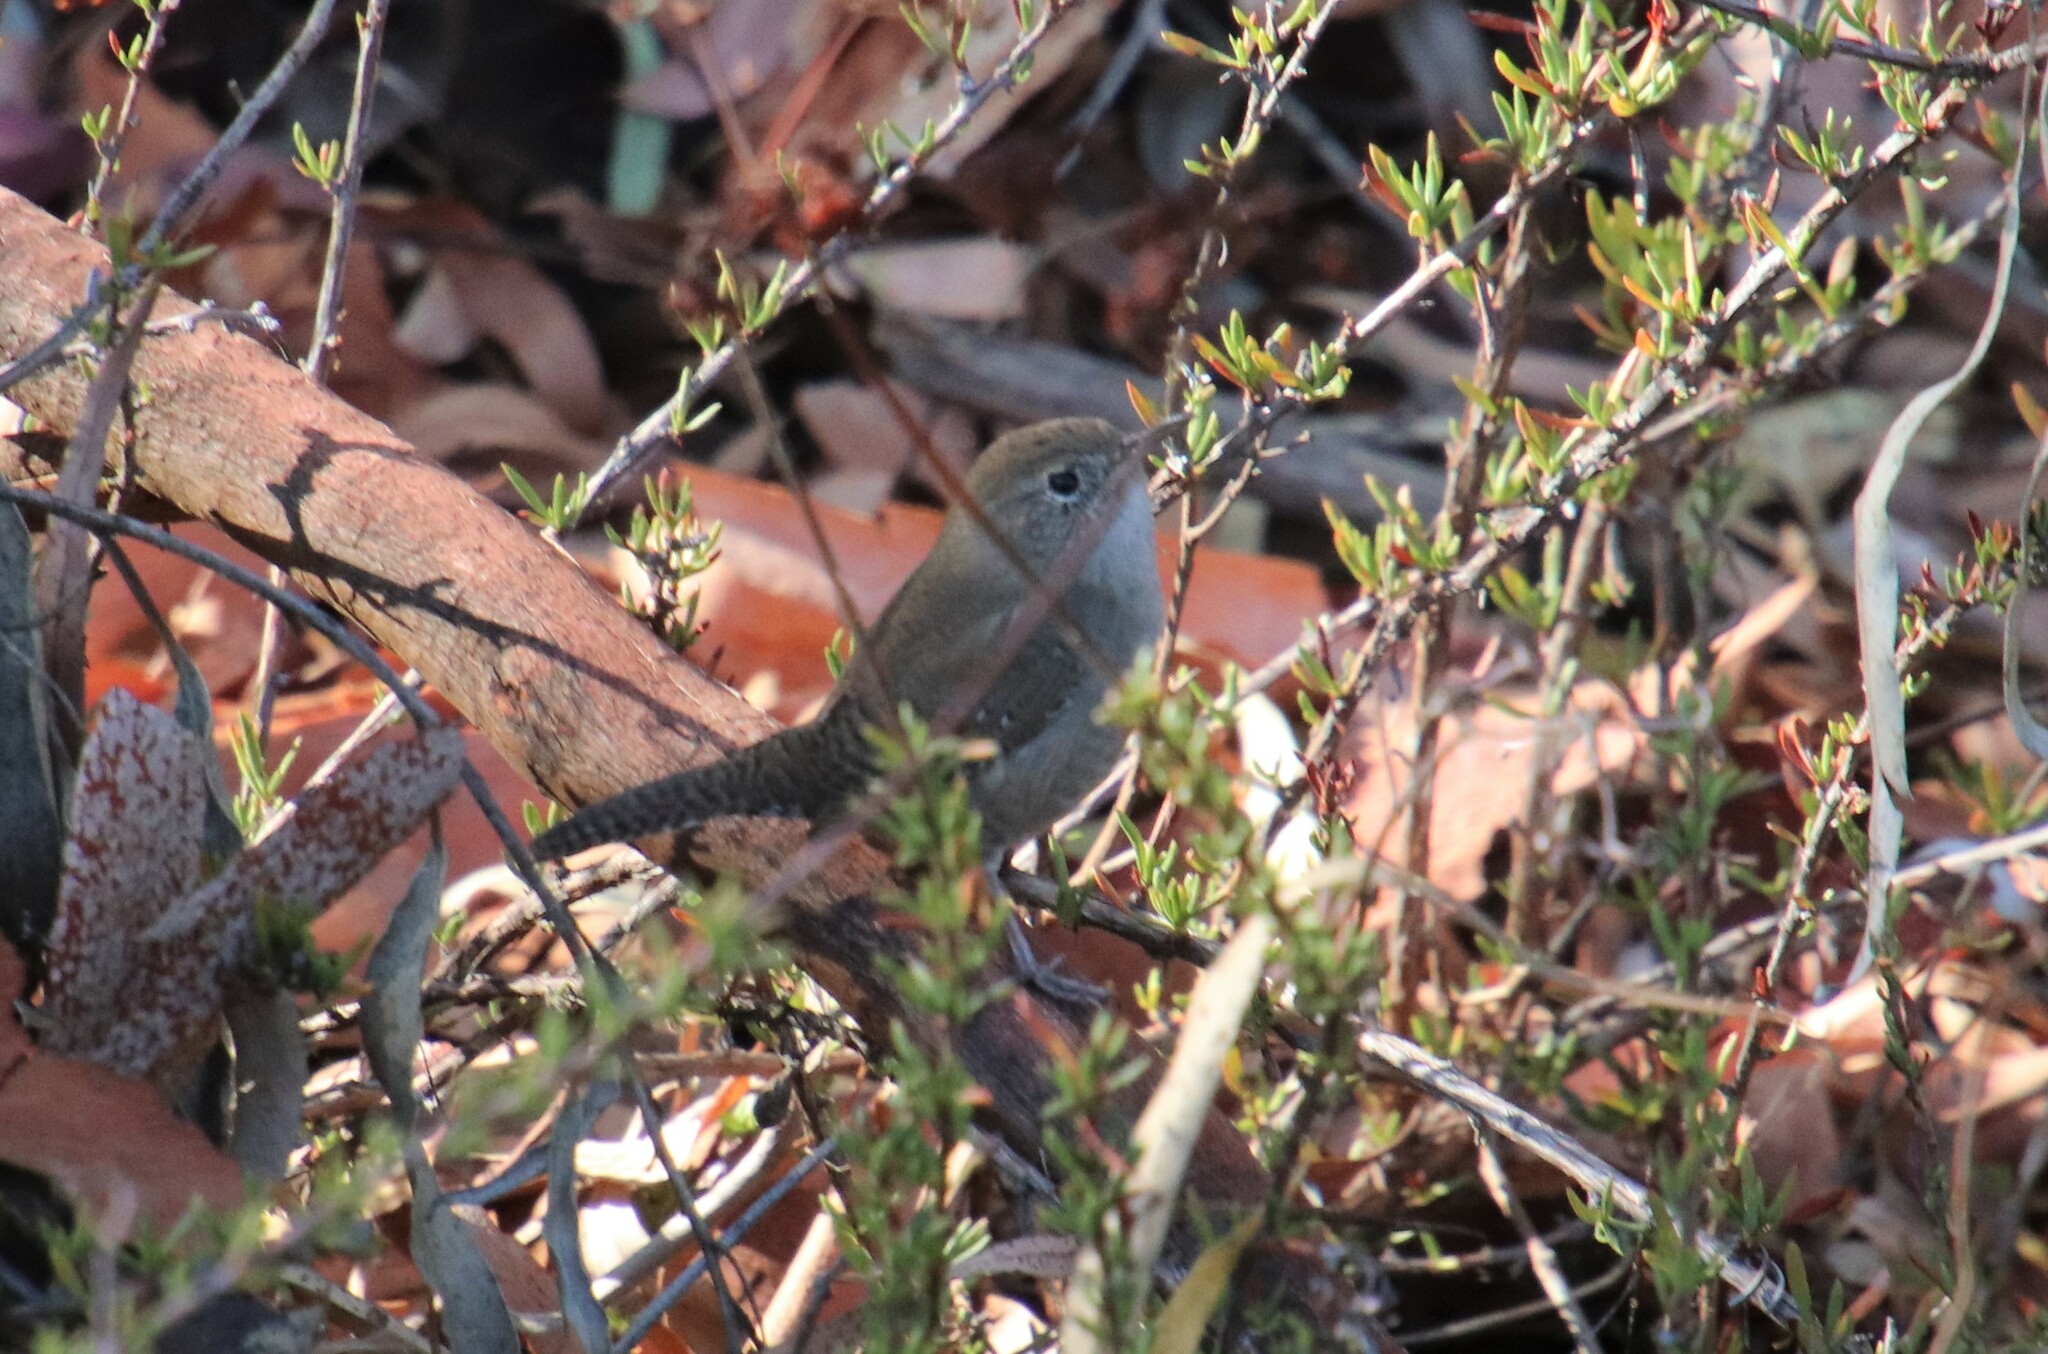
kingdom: Animalia
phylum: Chordata
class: Aves
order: Passeriformes
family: Troglodytidae
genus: Troglodytes
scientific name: Troglodytes aedon
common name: House wren
